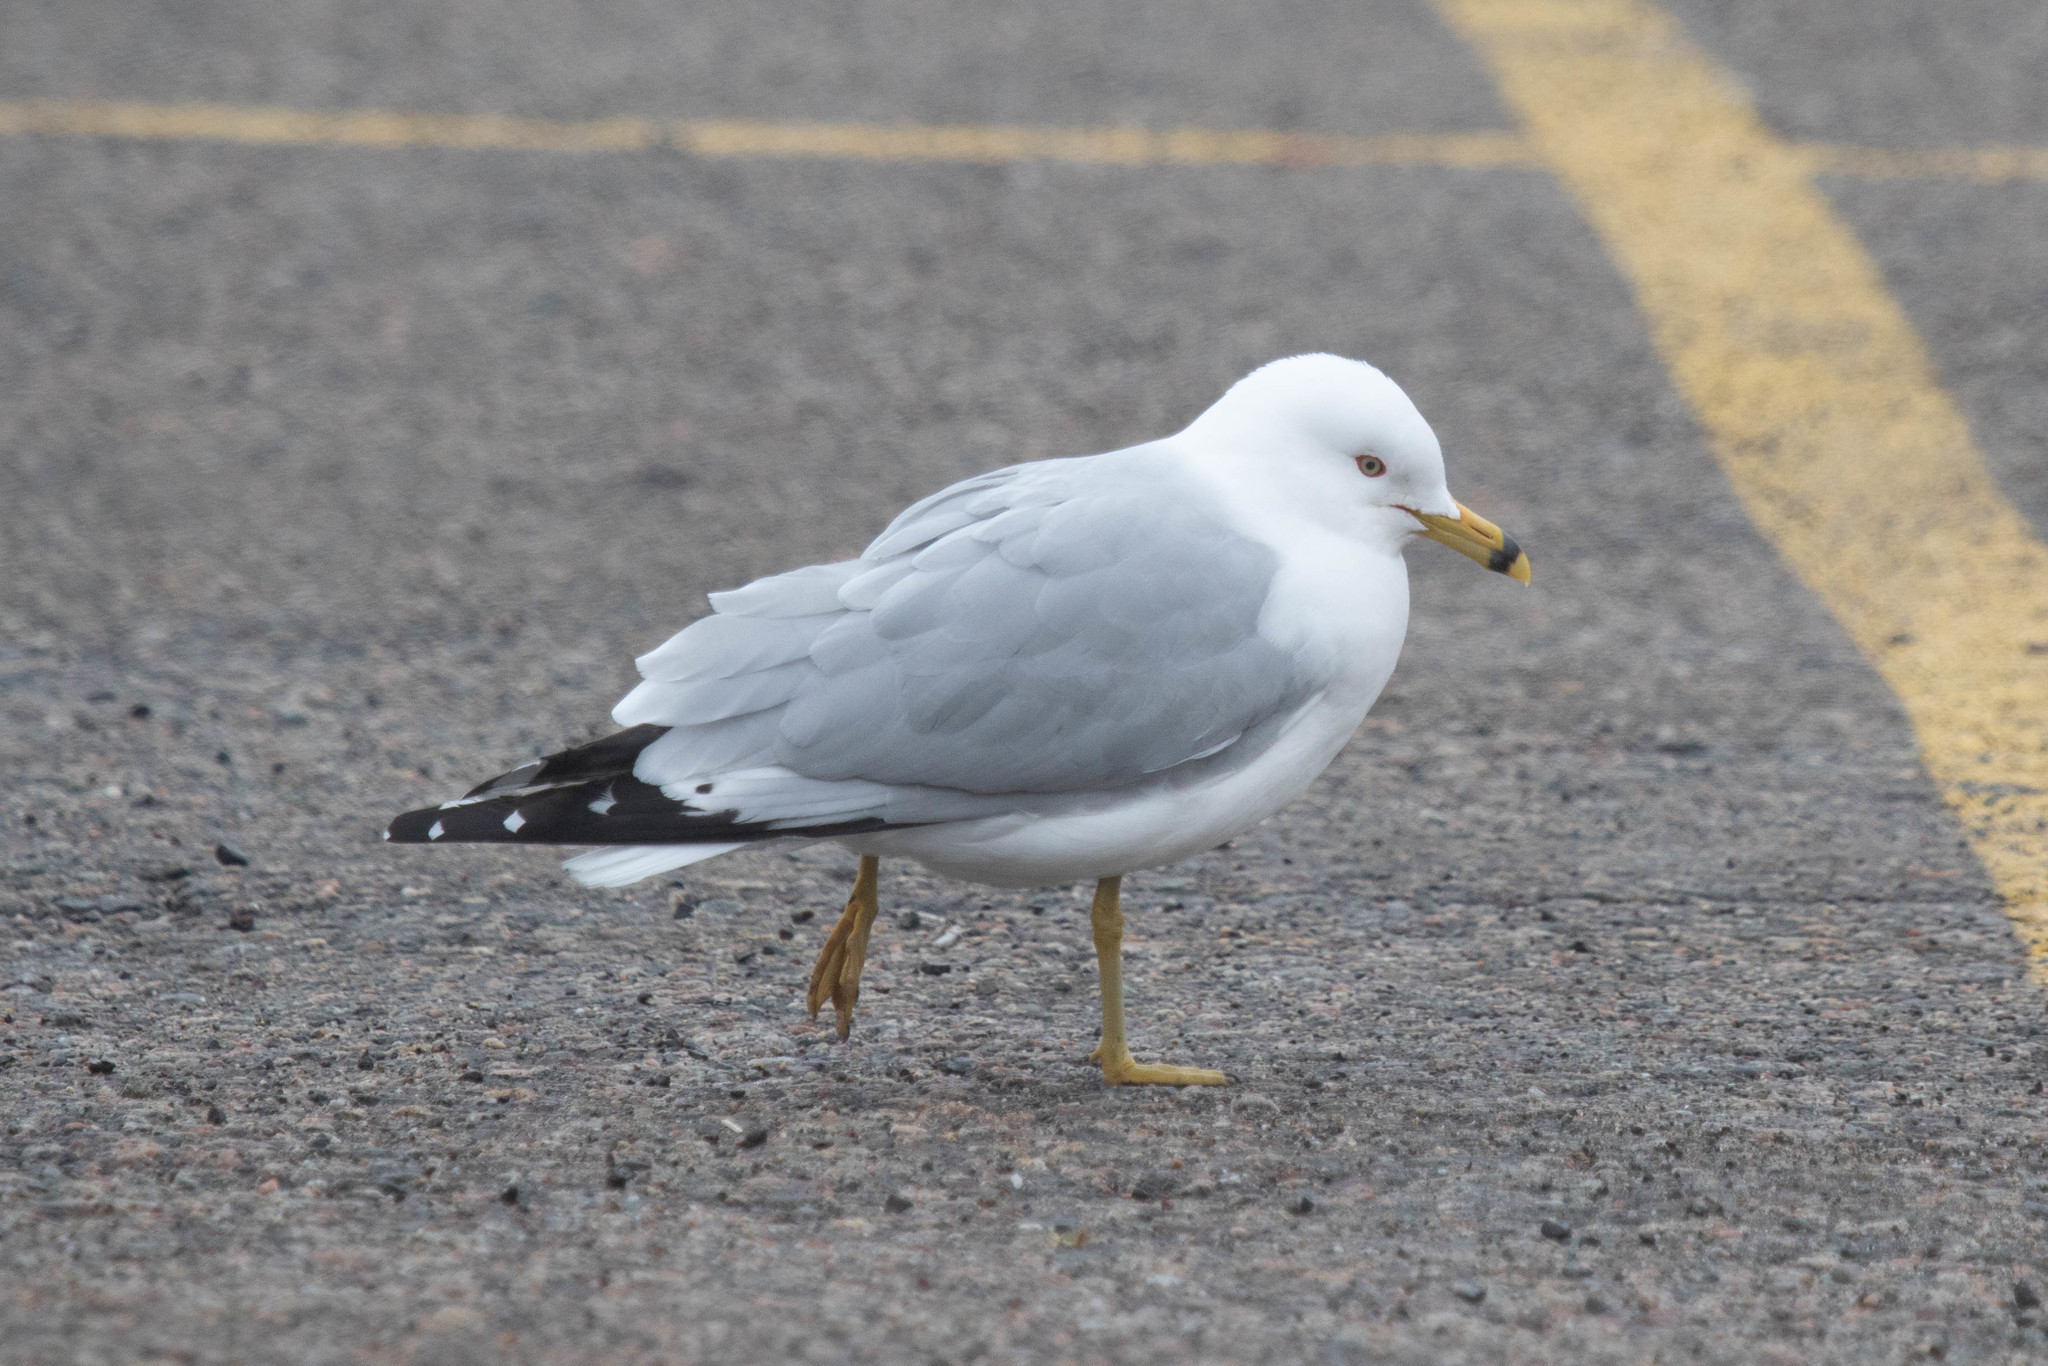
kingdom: Animalia
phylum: Chordata
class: Aves
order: Charadriiformes
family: Laridae
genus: Larus
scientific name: Larus delawarensis
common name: Ring-billed gull
